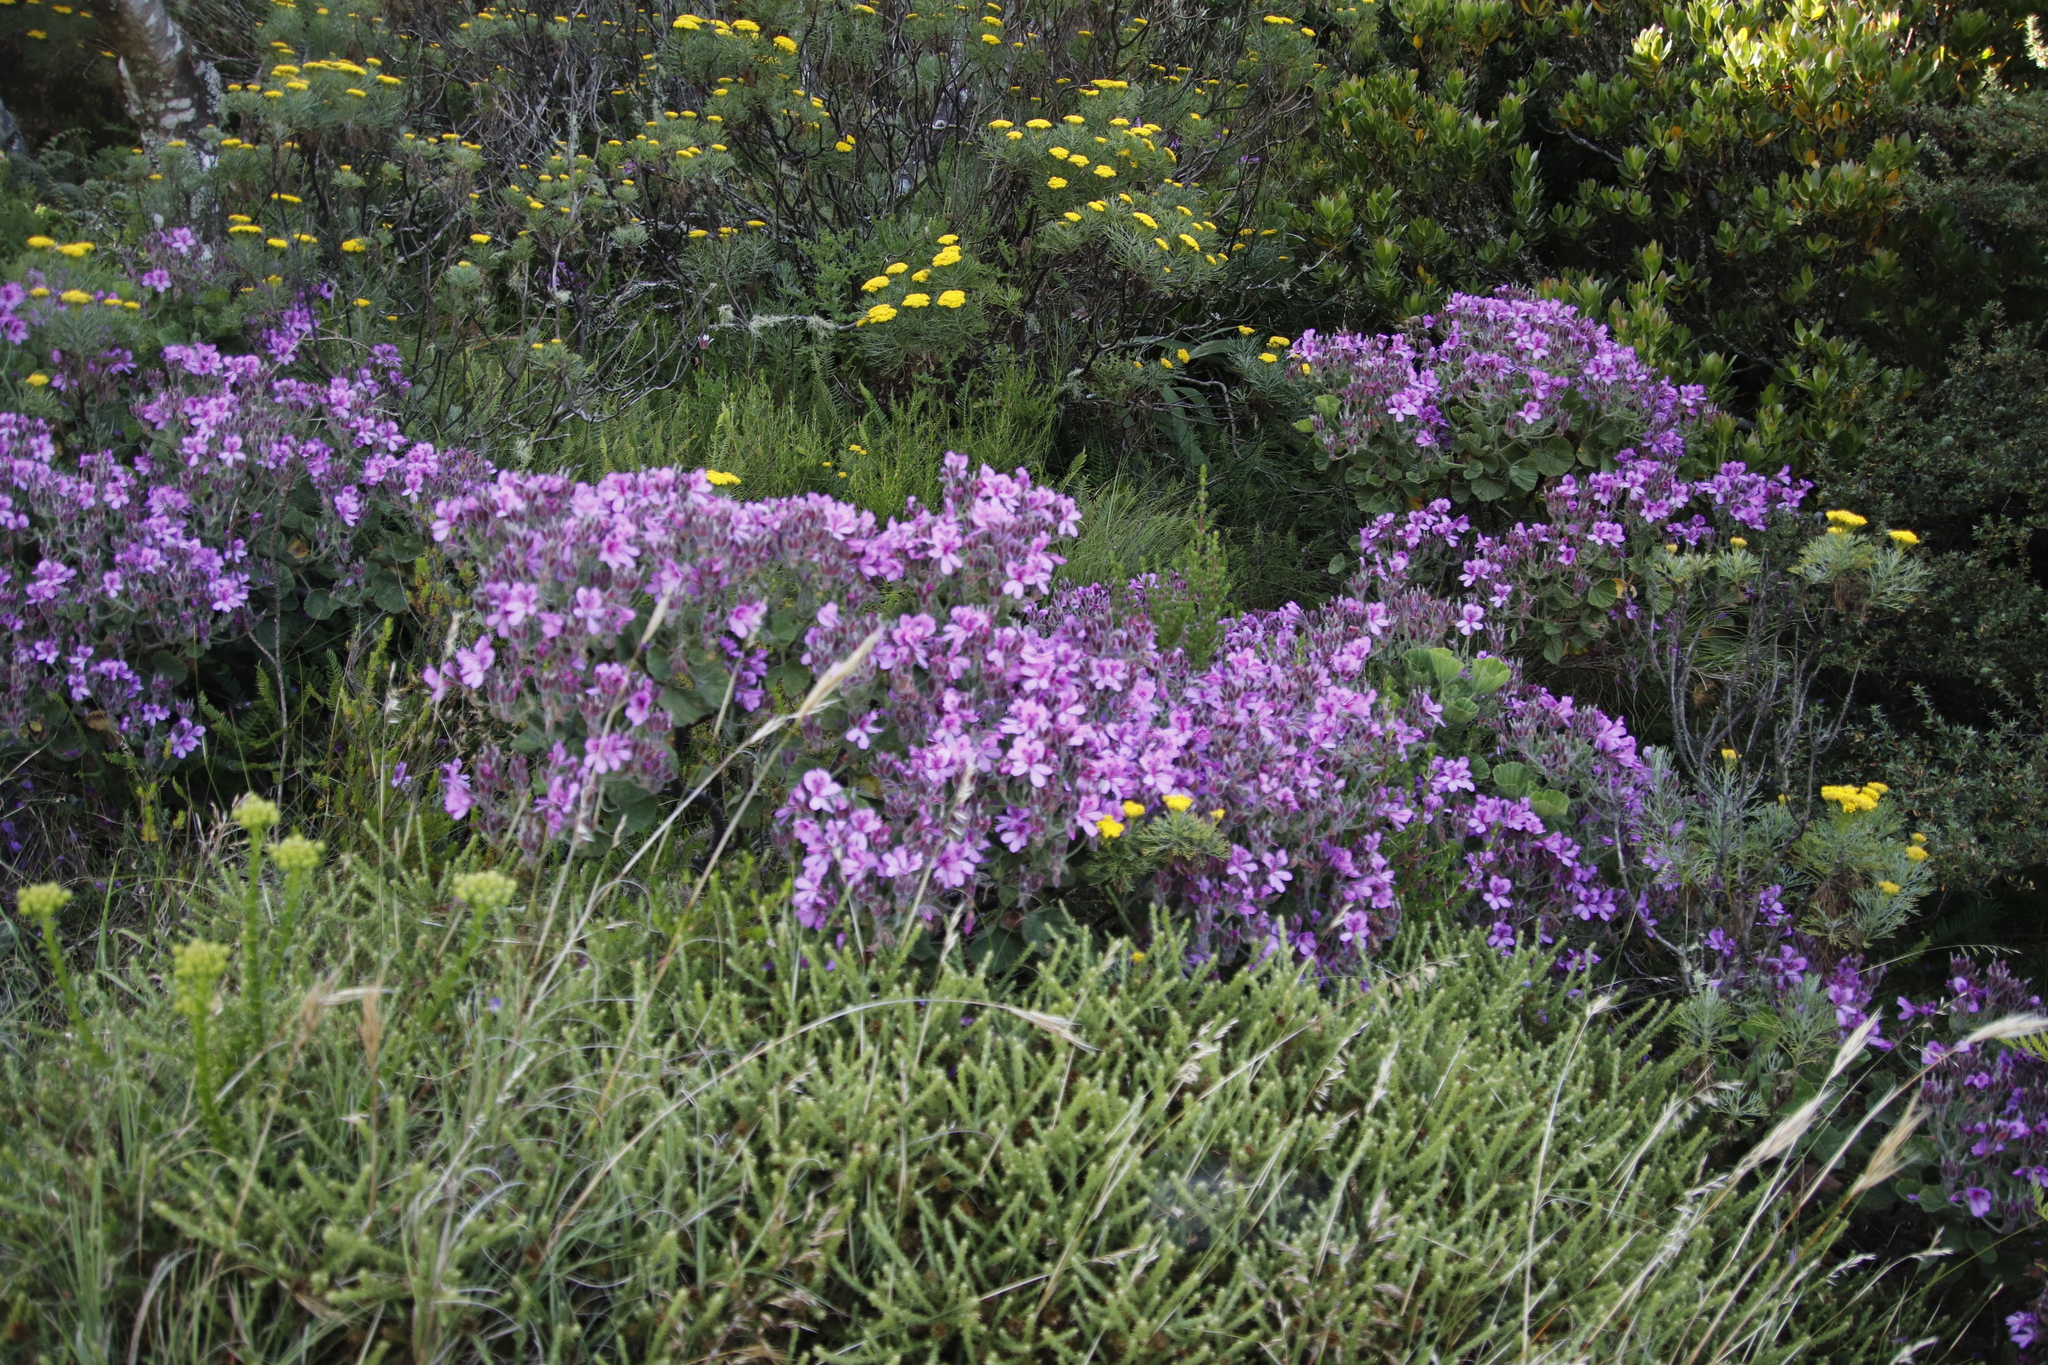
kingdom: Plantae
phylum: Tracheophyta
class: Magnoliopsida
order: Geraniales
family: Geraniaceae
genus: Pelargonium
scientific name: Pelargonium cucullatum
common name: Tree pelargonium
